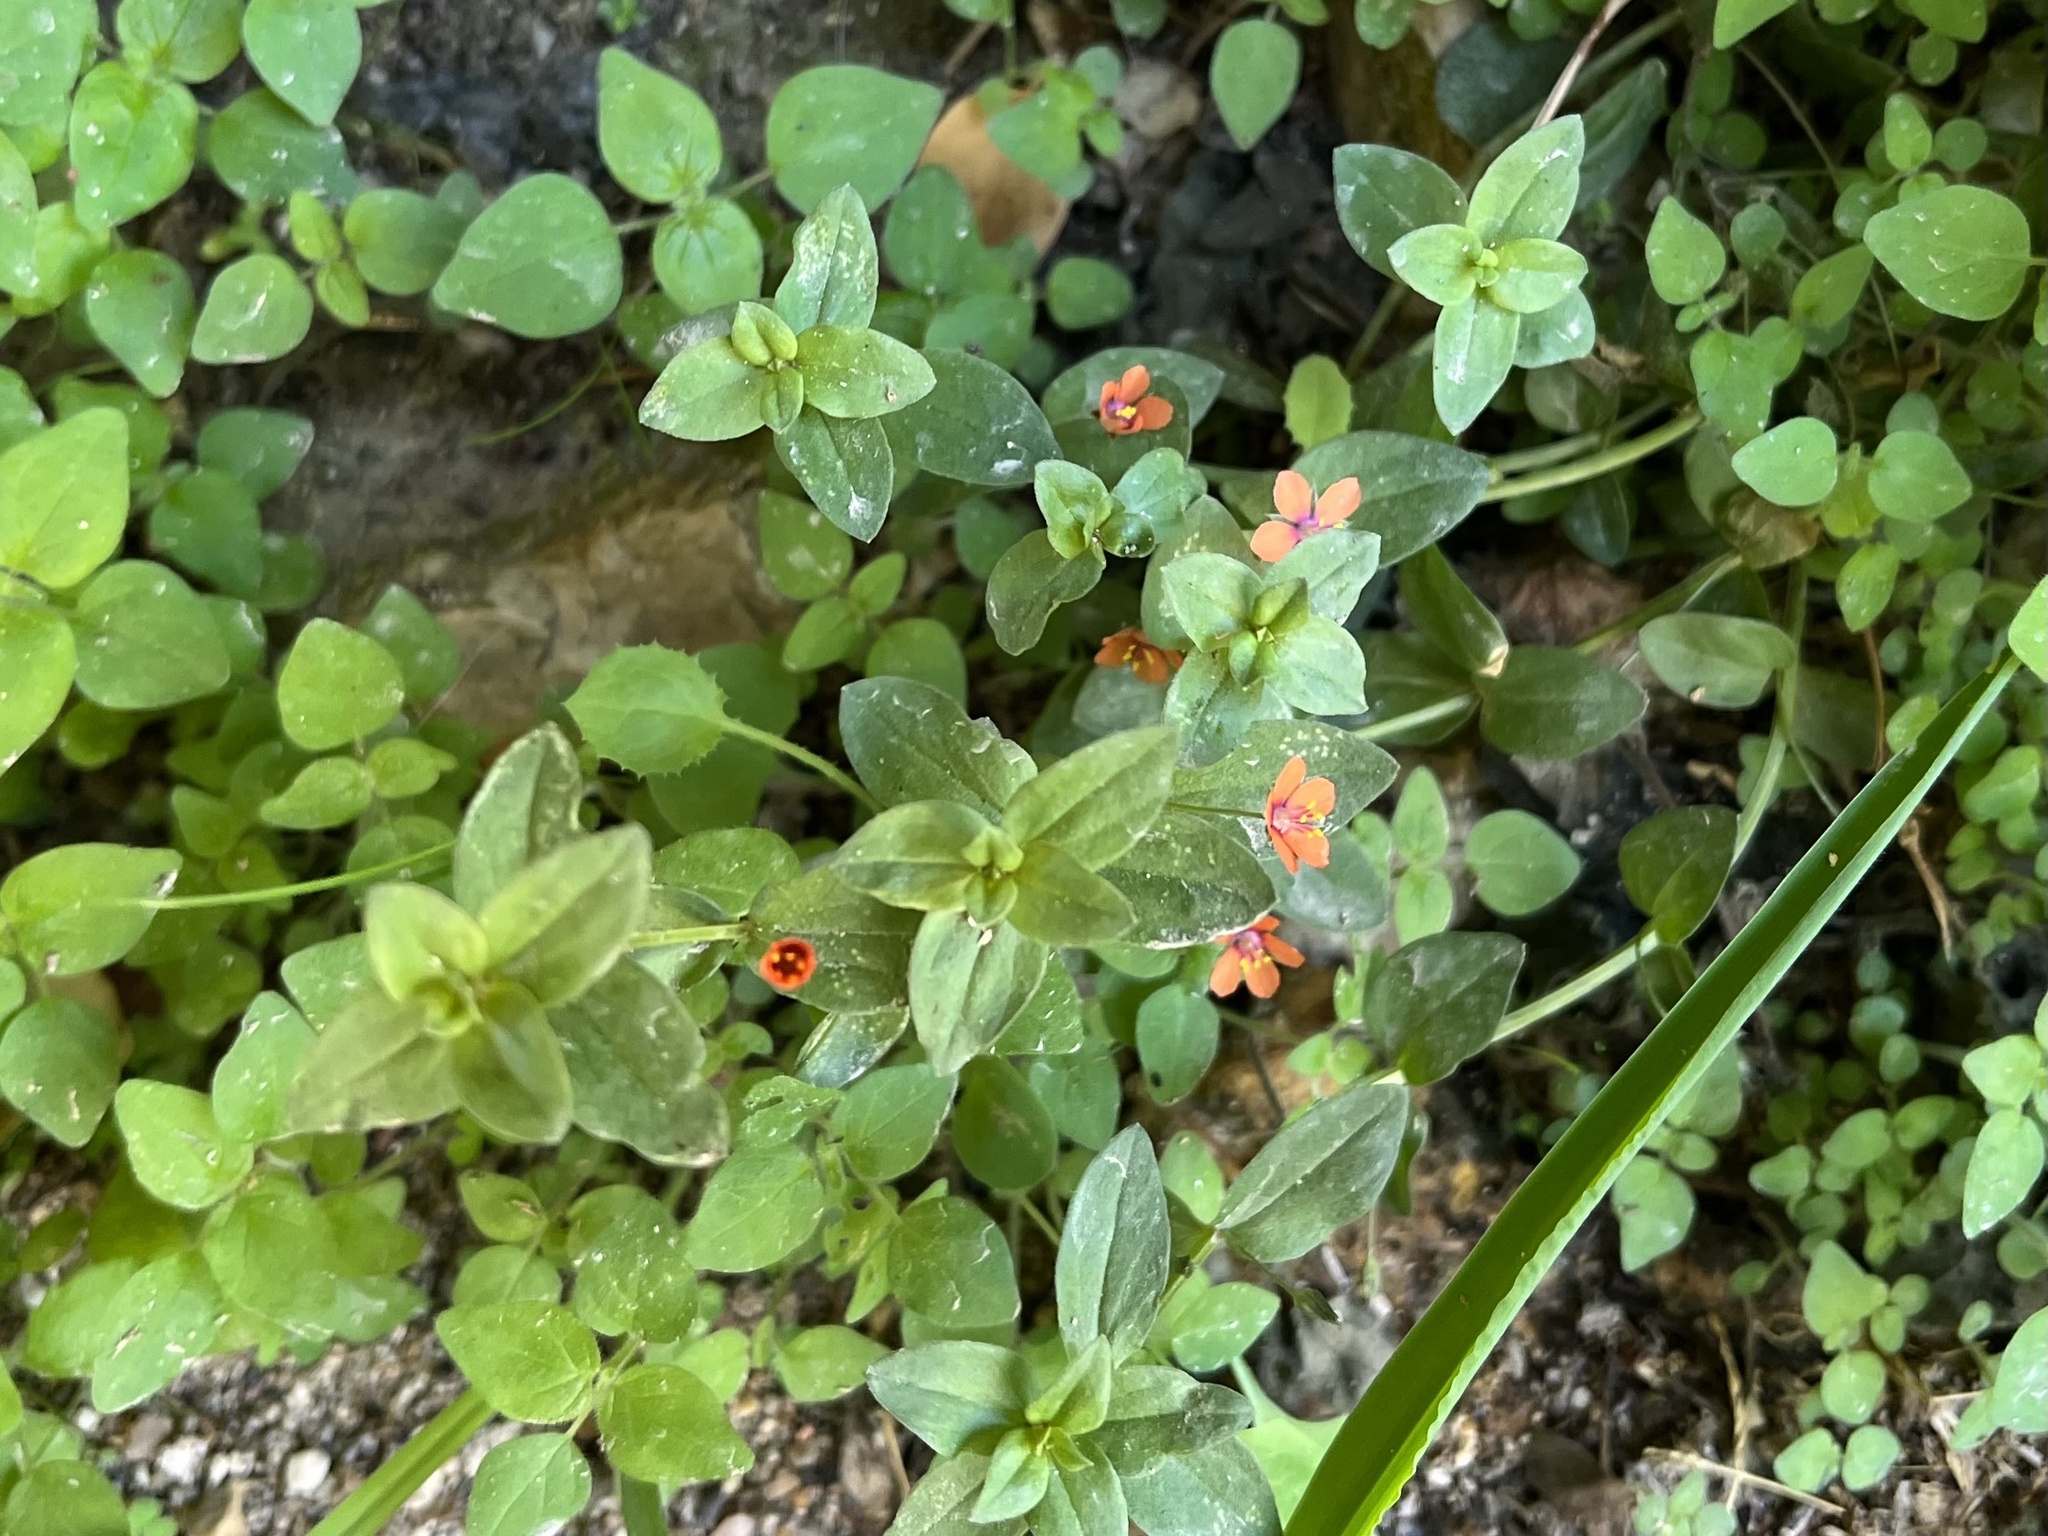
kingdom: Plantae
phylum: Tracheophyta
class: Magnoliopsida
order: Ericales
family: Primulaceae
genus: Lysimachia
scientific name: Lysimachia arvensis
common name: Scarlet pimpernel
